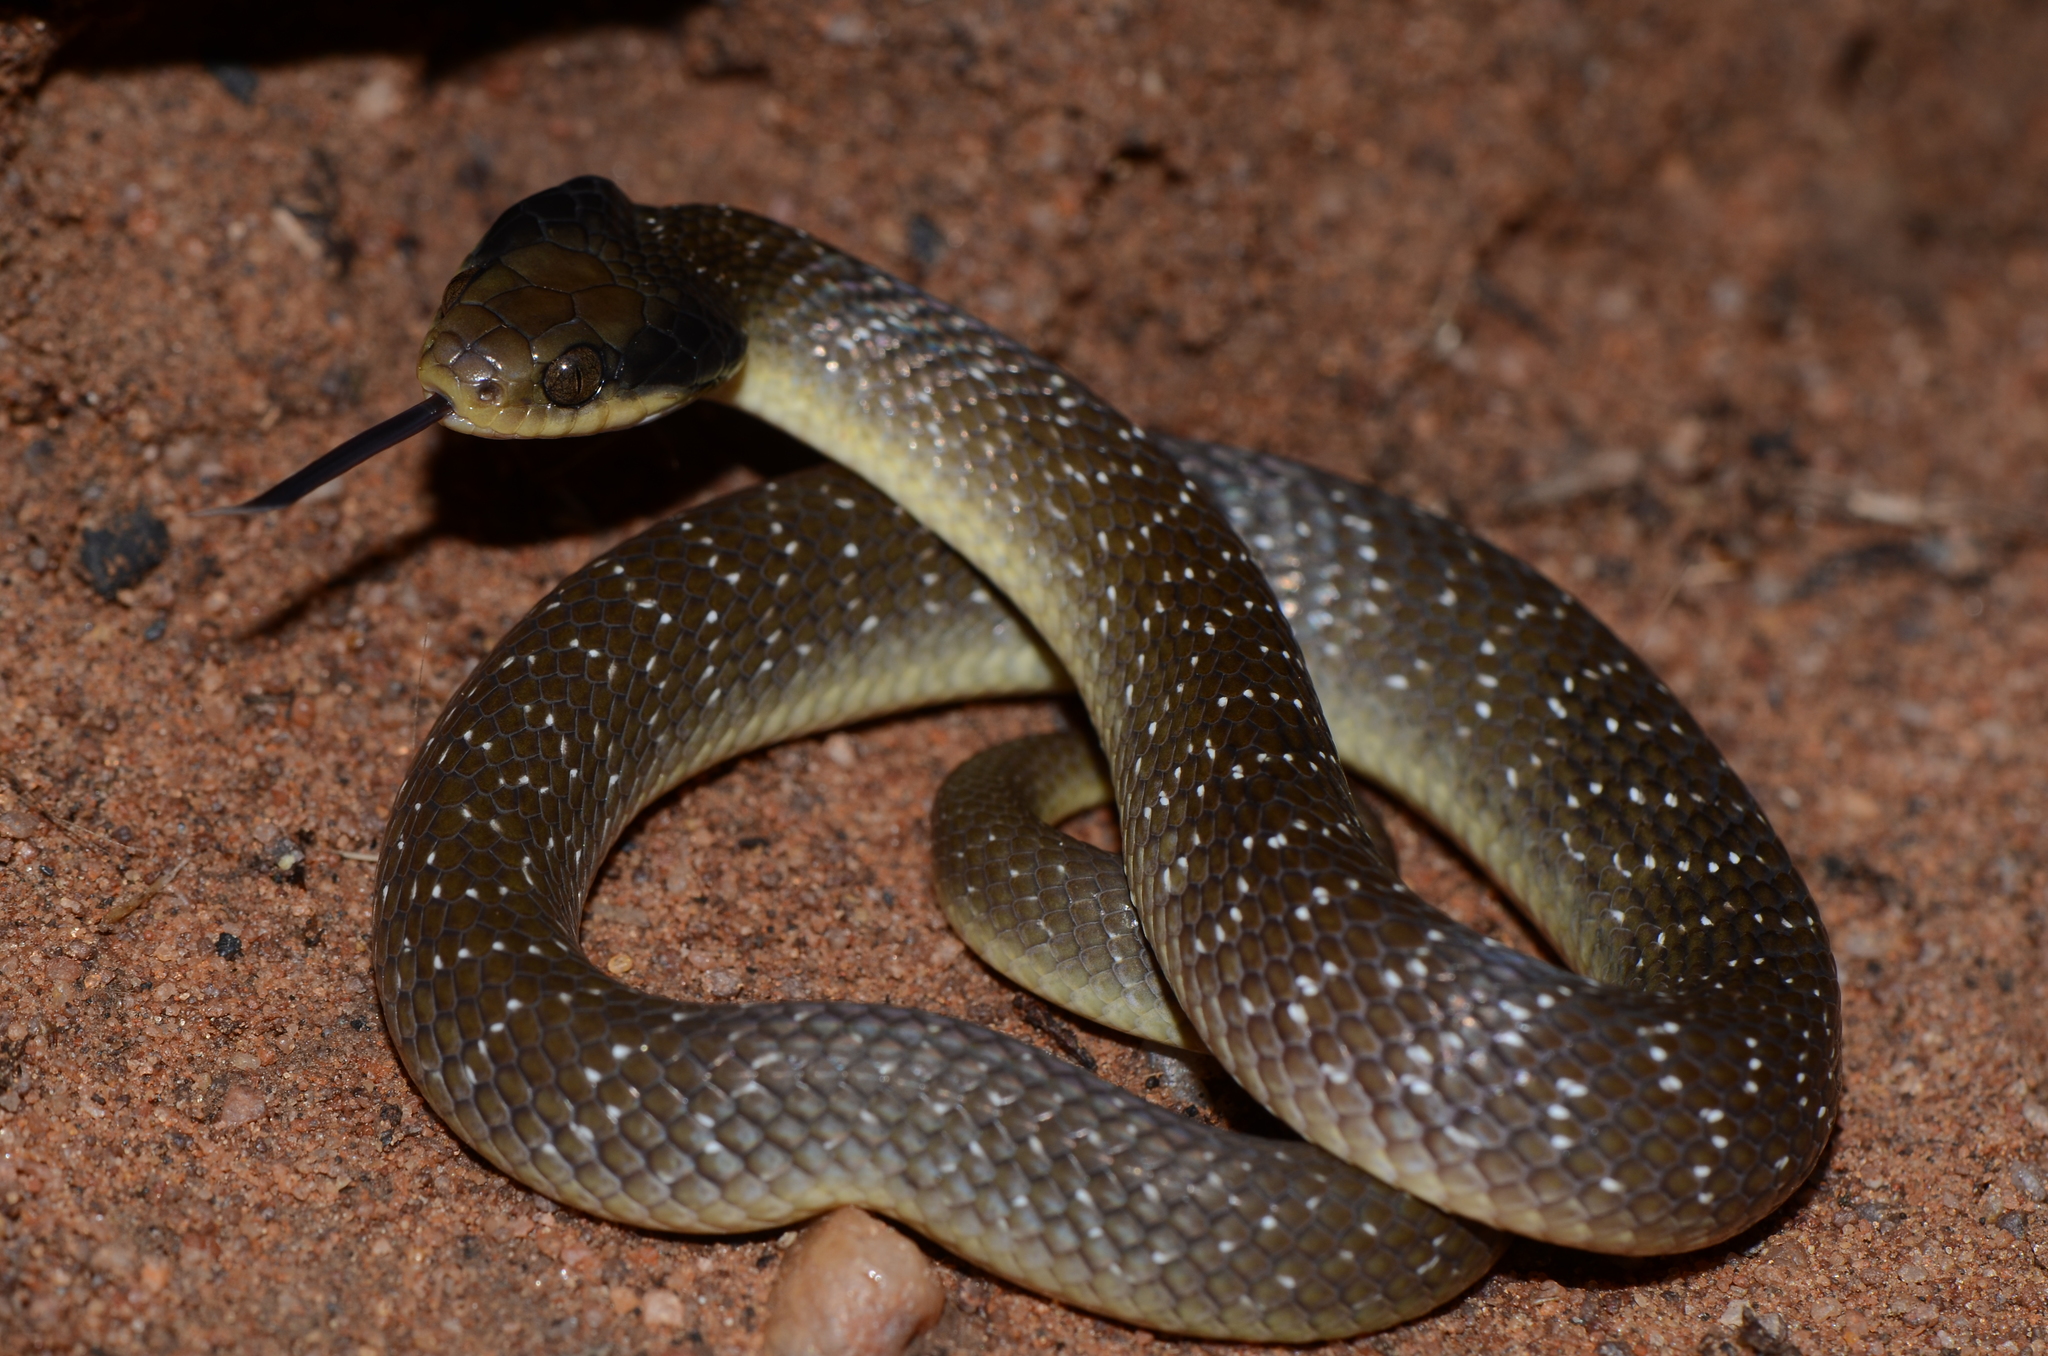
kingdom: Animalia
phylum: Chordata
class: Squamata
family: Colubridae
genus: Crotaphopeltis
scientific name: Crotaphopeltis hotamboeia
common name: Red-lipped snake
